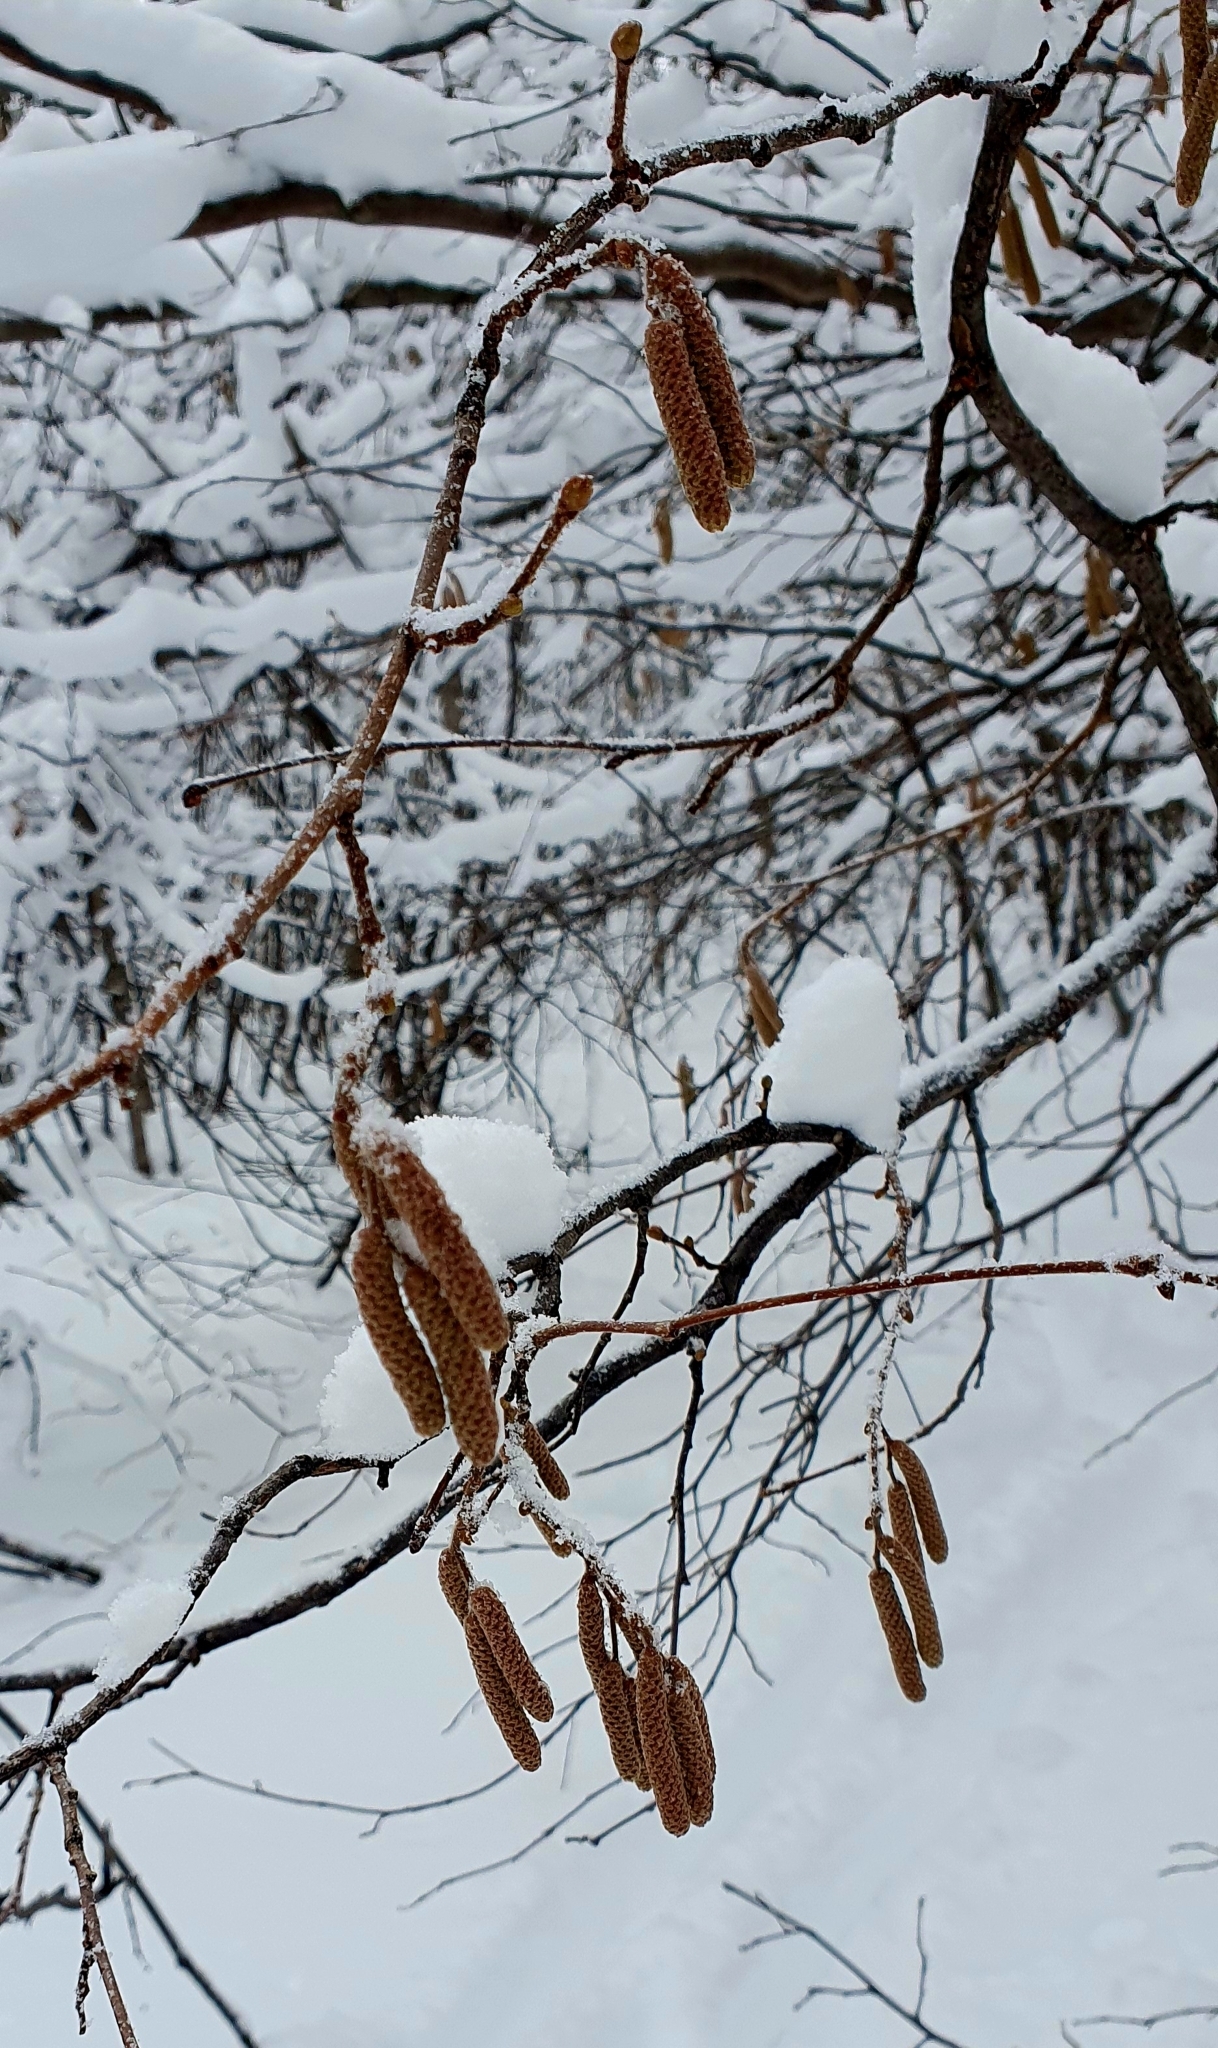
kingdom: Plantae
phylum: Tracheophyta
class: Magnoliopsida
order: Fagales
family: Betulaceae
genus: Corylus
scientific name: Corylus avellana
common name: European hazel
